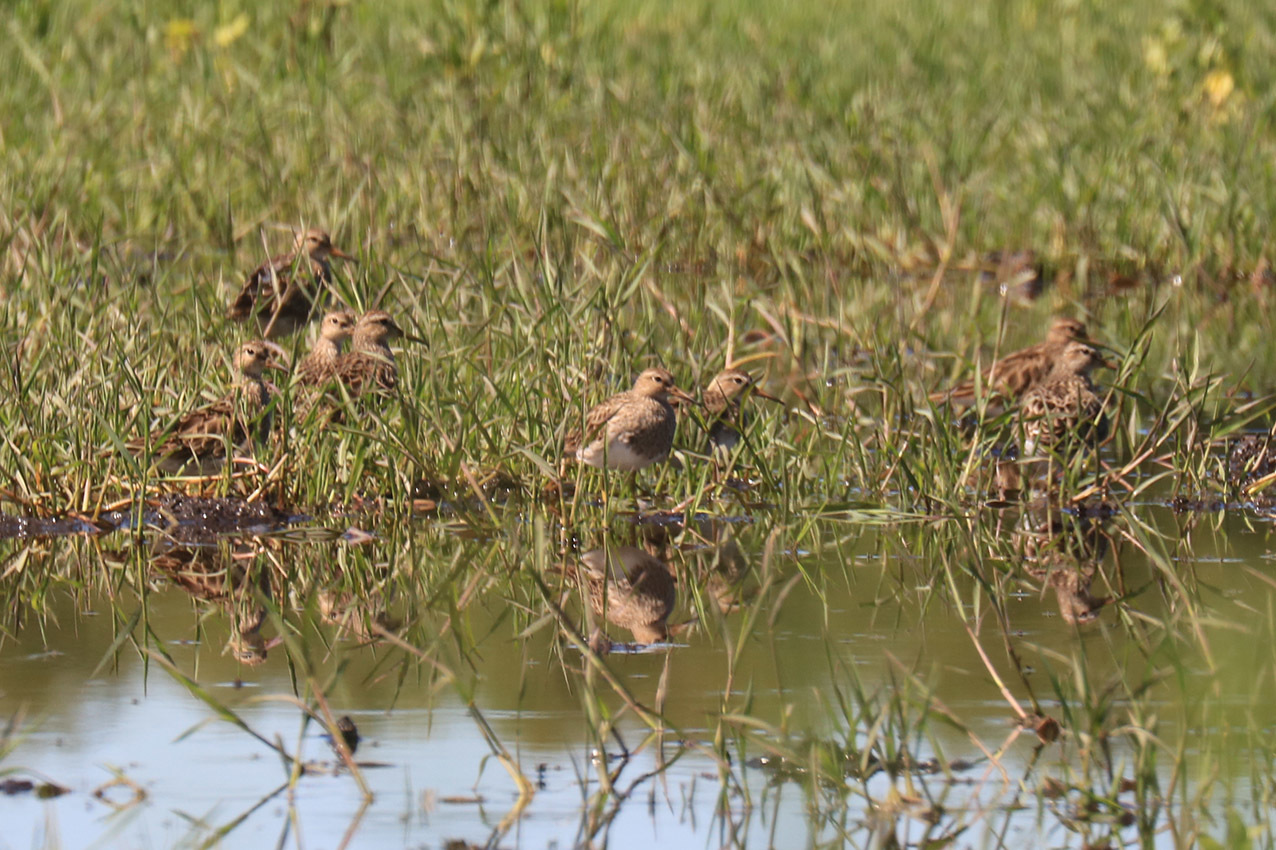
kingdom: Animalia
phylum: Chordata
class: Aves
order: Charadriiformes
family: Scolopacidae
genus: Calidris
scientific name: Calidris melanotos
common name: Pectoral sandpiper
